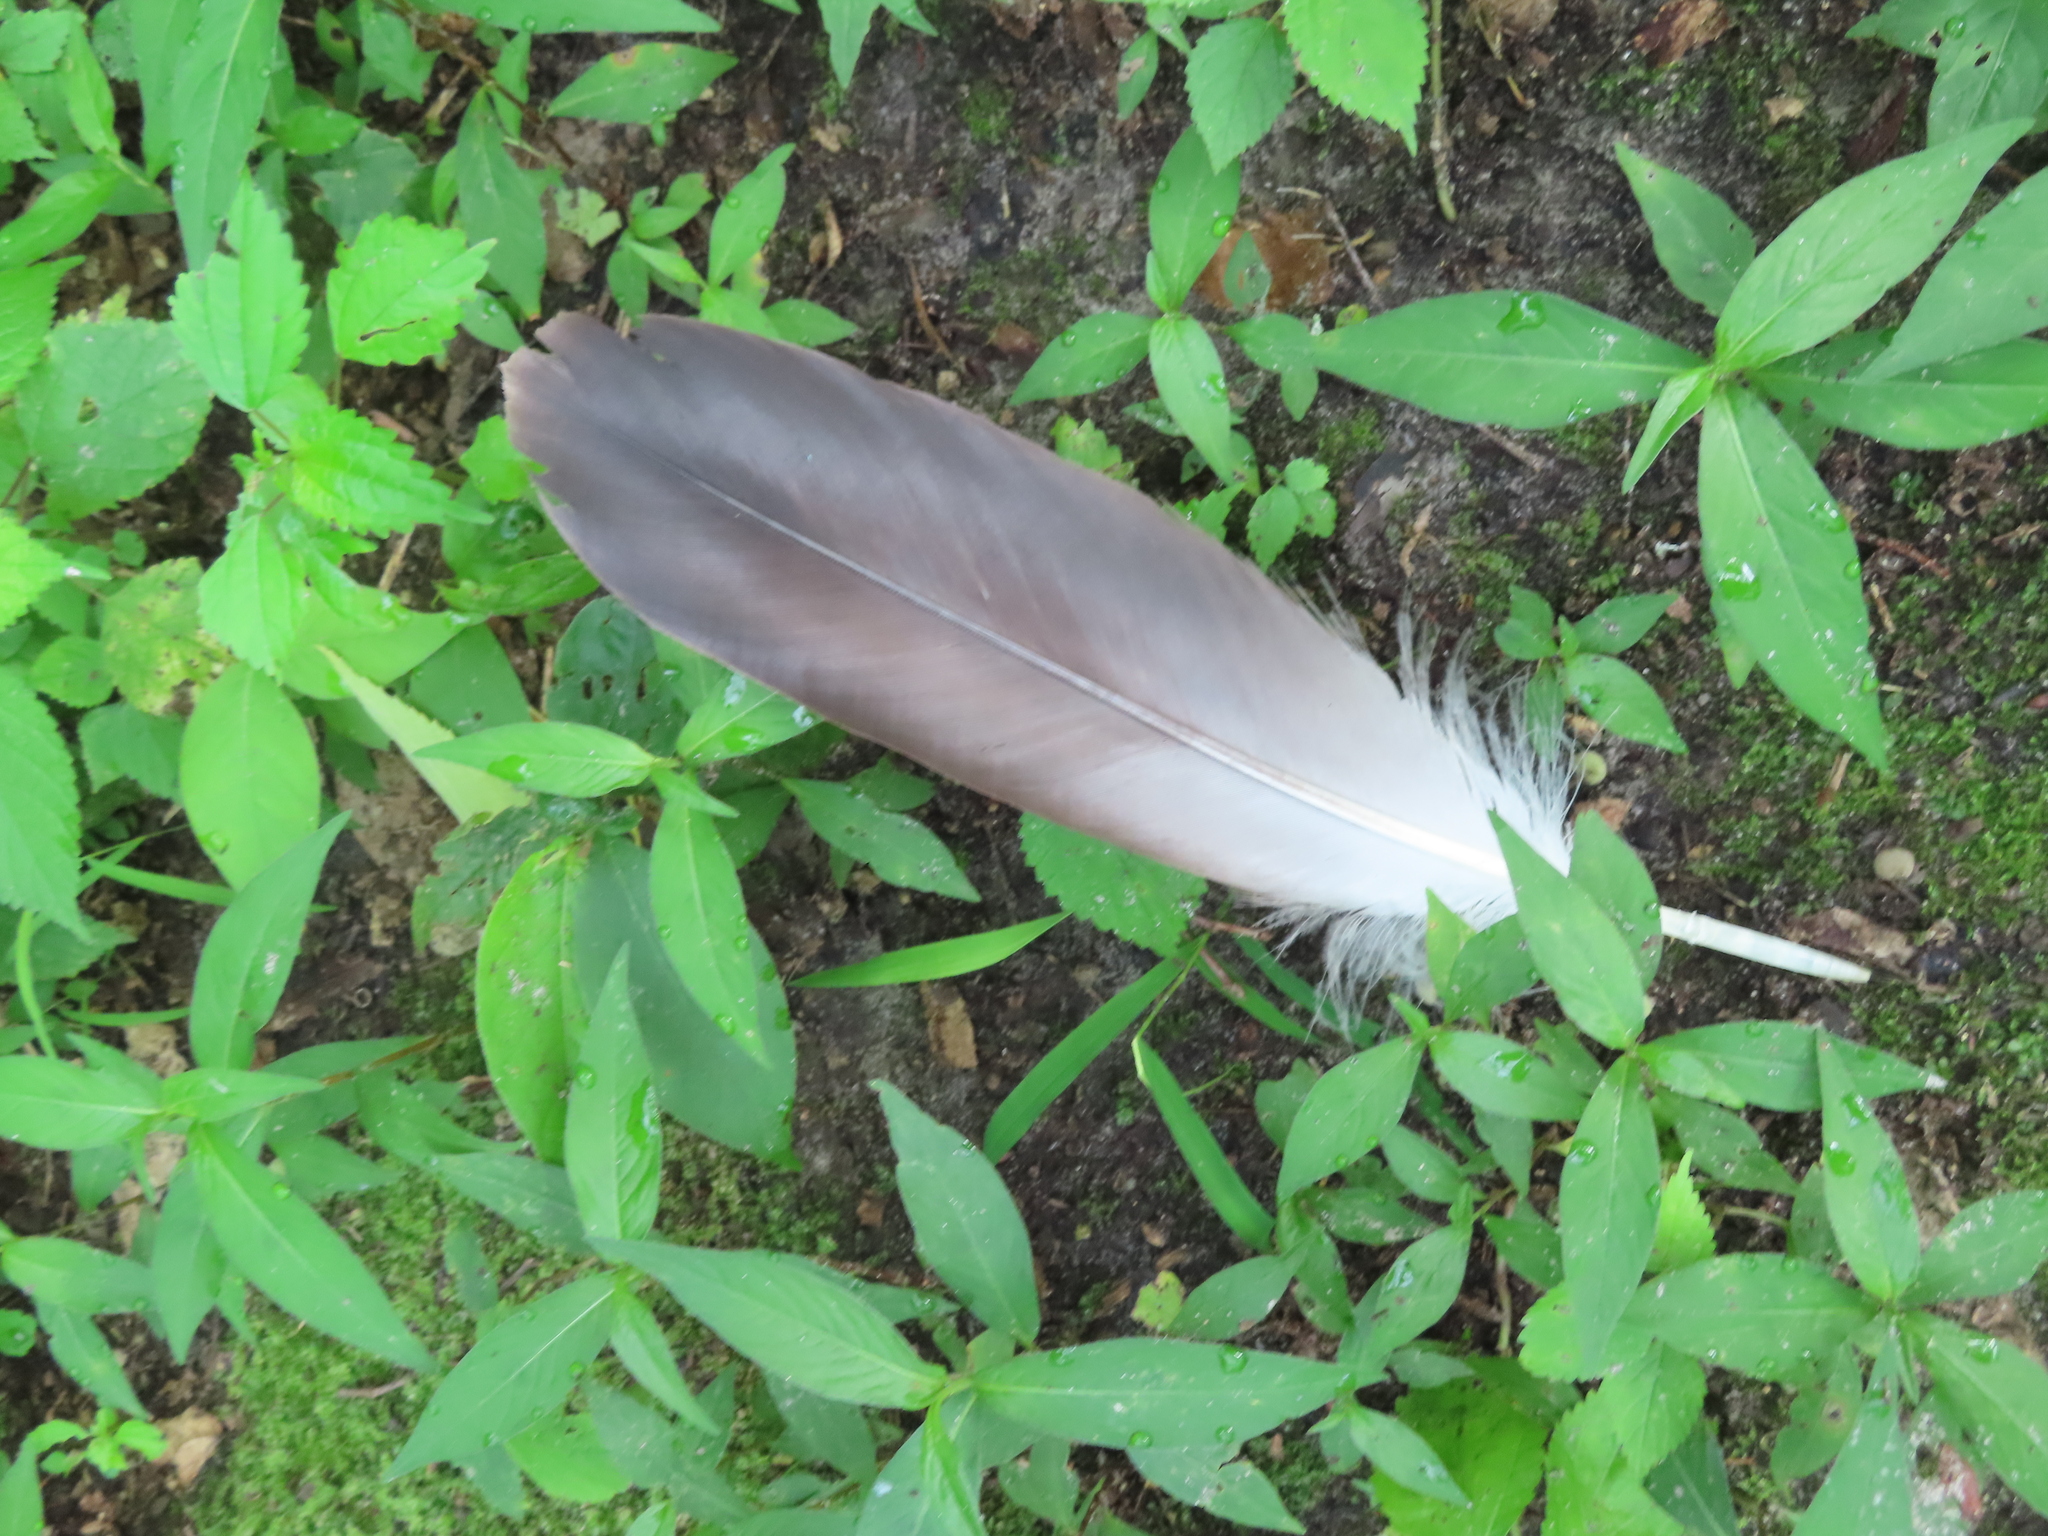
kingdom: Animalia
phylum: Chordata
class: Aves
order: Accipitriformes
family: Accipitridae
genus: Haliaeetus
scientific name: Haliaeetus leucocephalus
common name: Bald eagle
